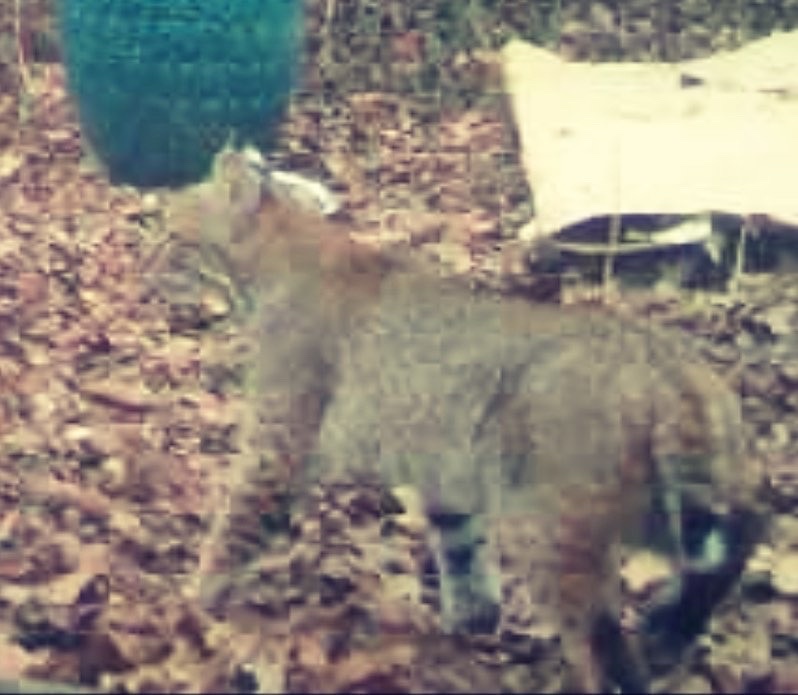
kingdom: Animalia
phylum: Chordata
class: Mammalia
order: Carnivora
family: Felidae
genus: Lynx
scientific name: Lynx rufus
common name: Bobcat
